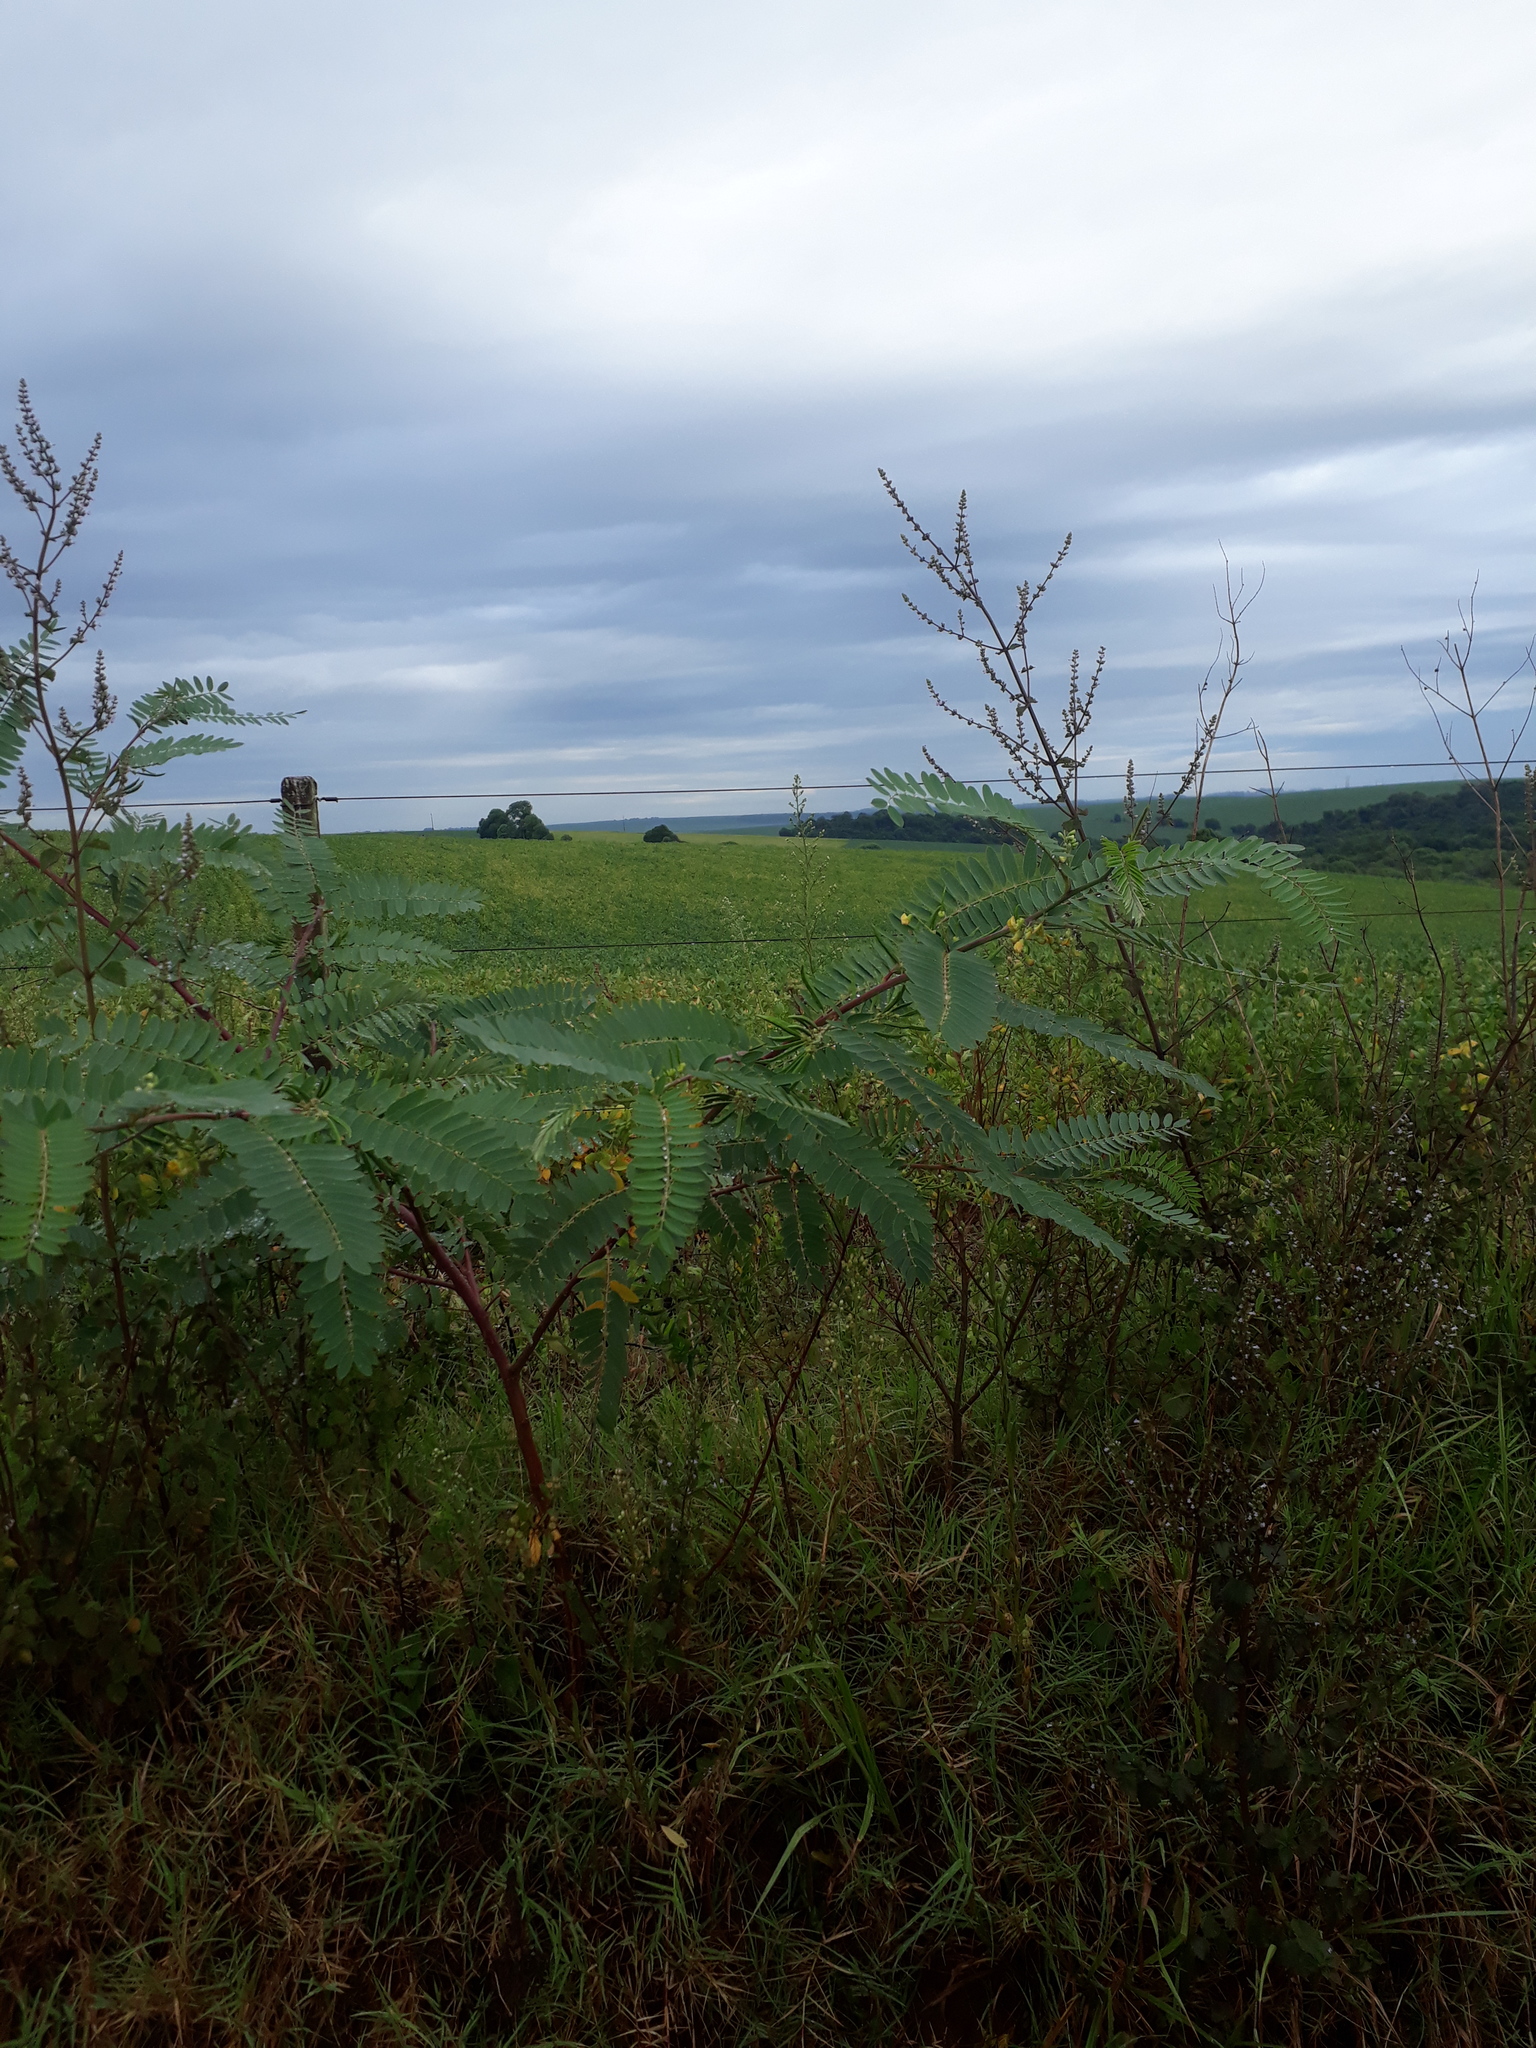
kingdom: Plantae
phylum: Tracheophyta
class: Magnoliopsida
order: Fabales
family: Fabaceae
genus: Sesbania
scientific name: Sesbania virgata
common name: Wand riverhemp
